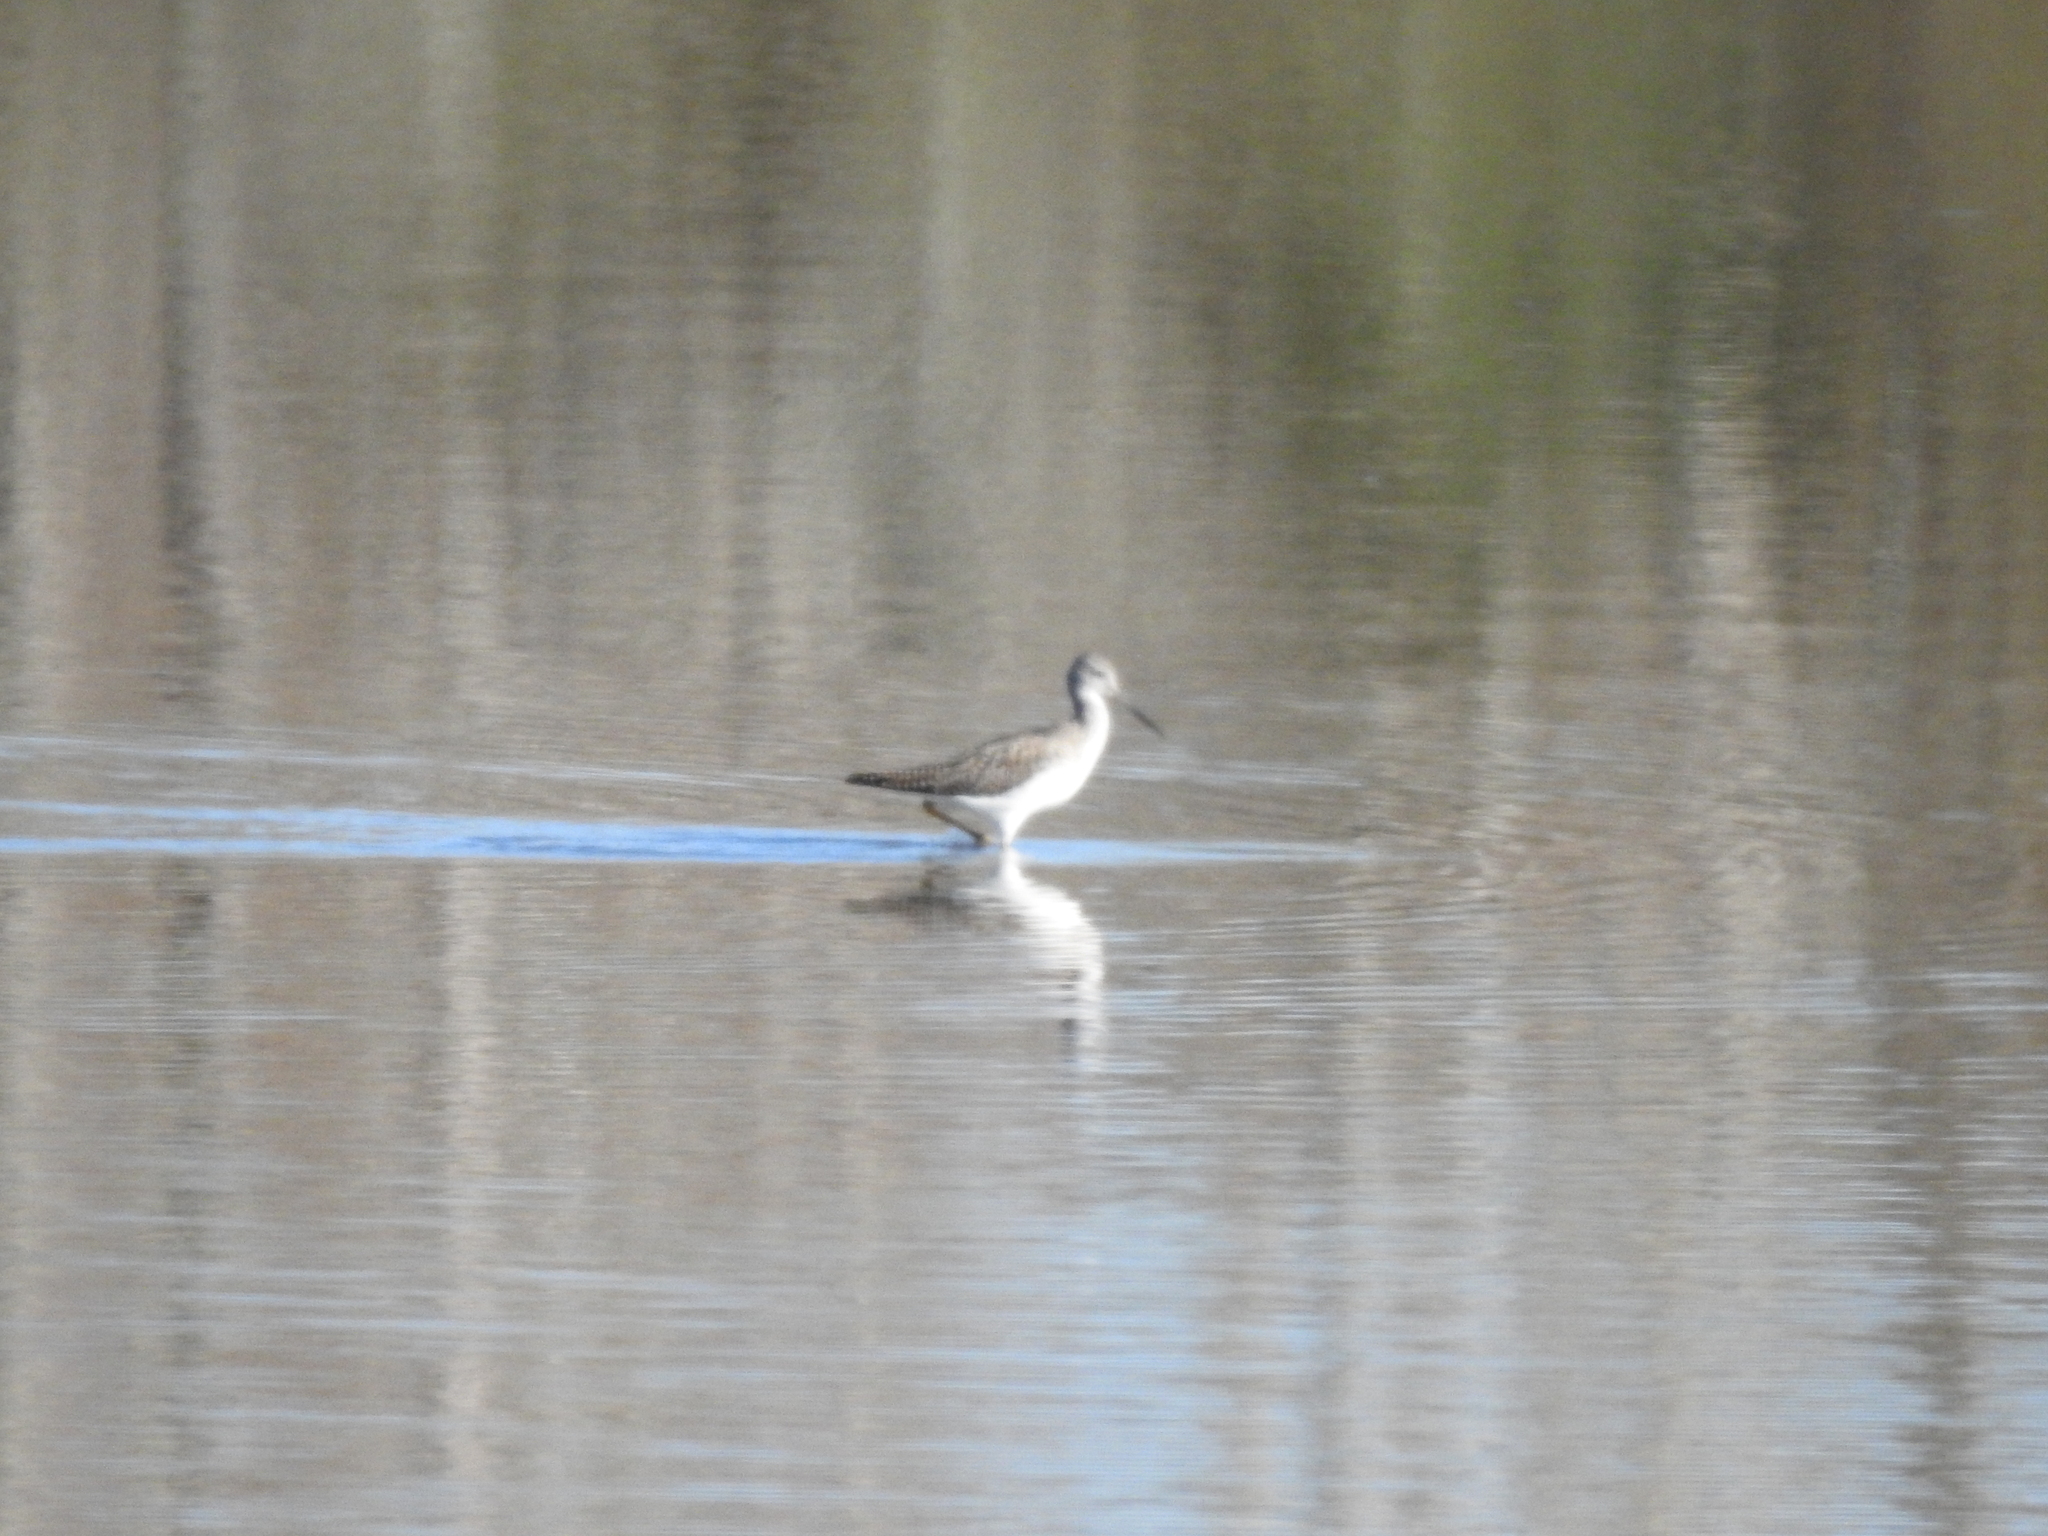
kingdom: Animalia
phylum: Chordata
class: Aves
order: Charadriiformes
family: Scolopacidae
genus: Tringa
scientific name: Tringa melanoleuca
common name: Greater yellowlegs
